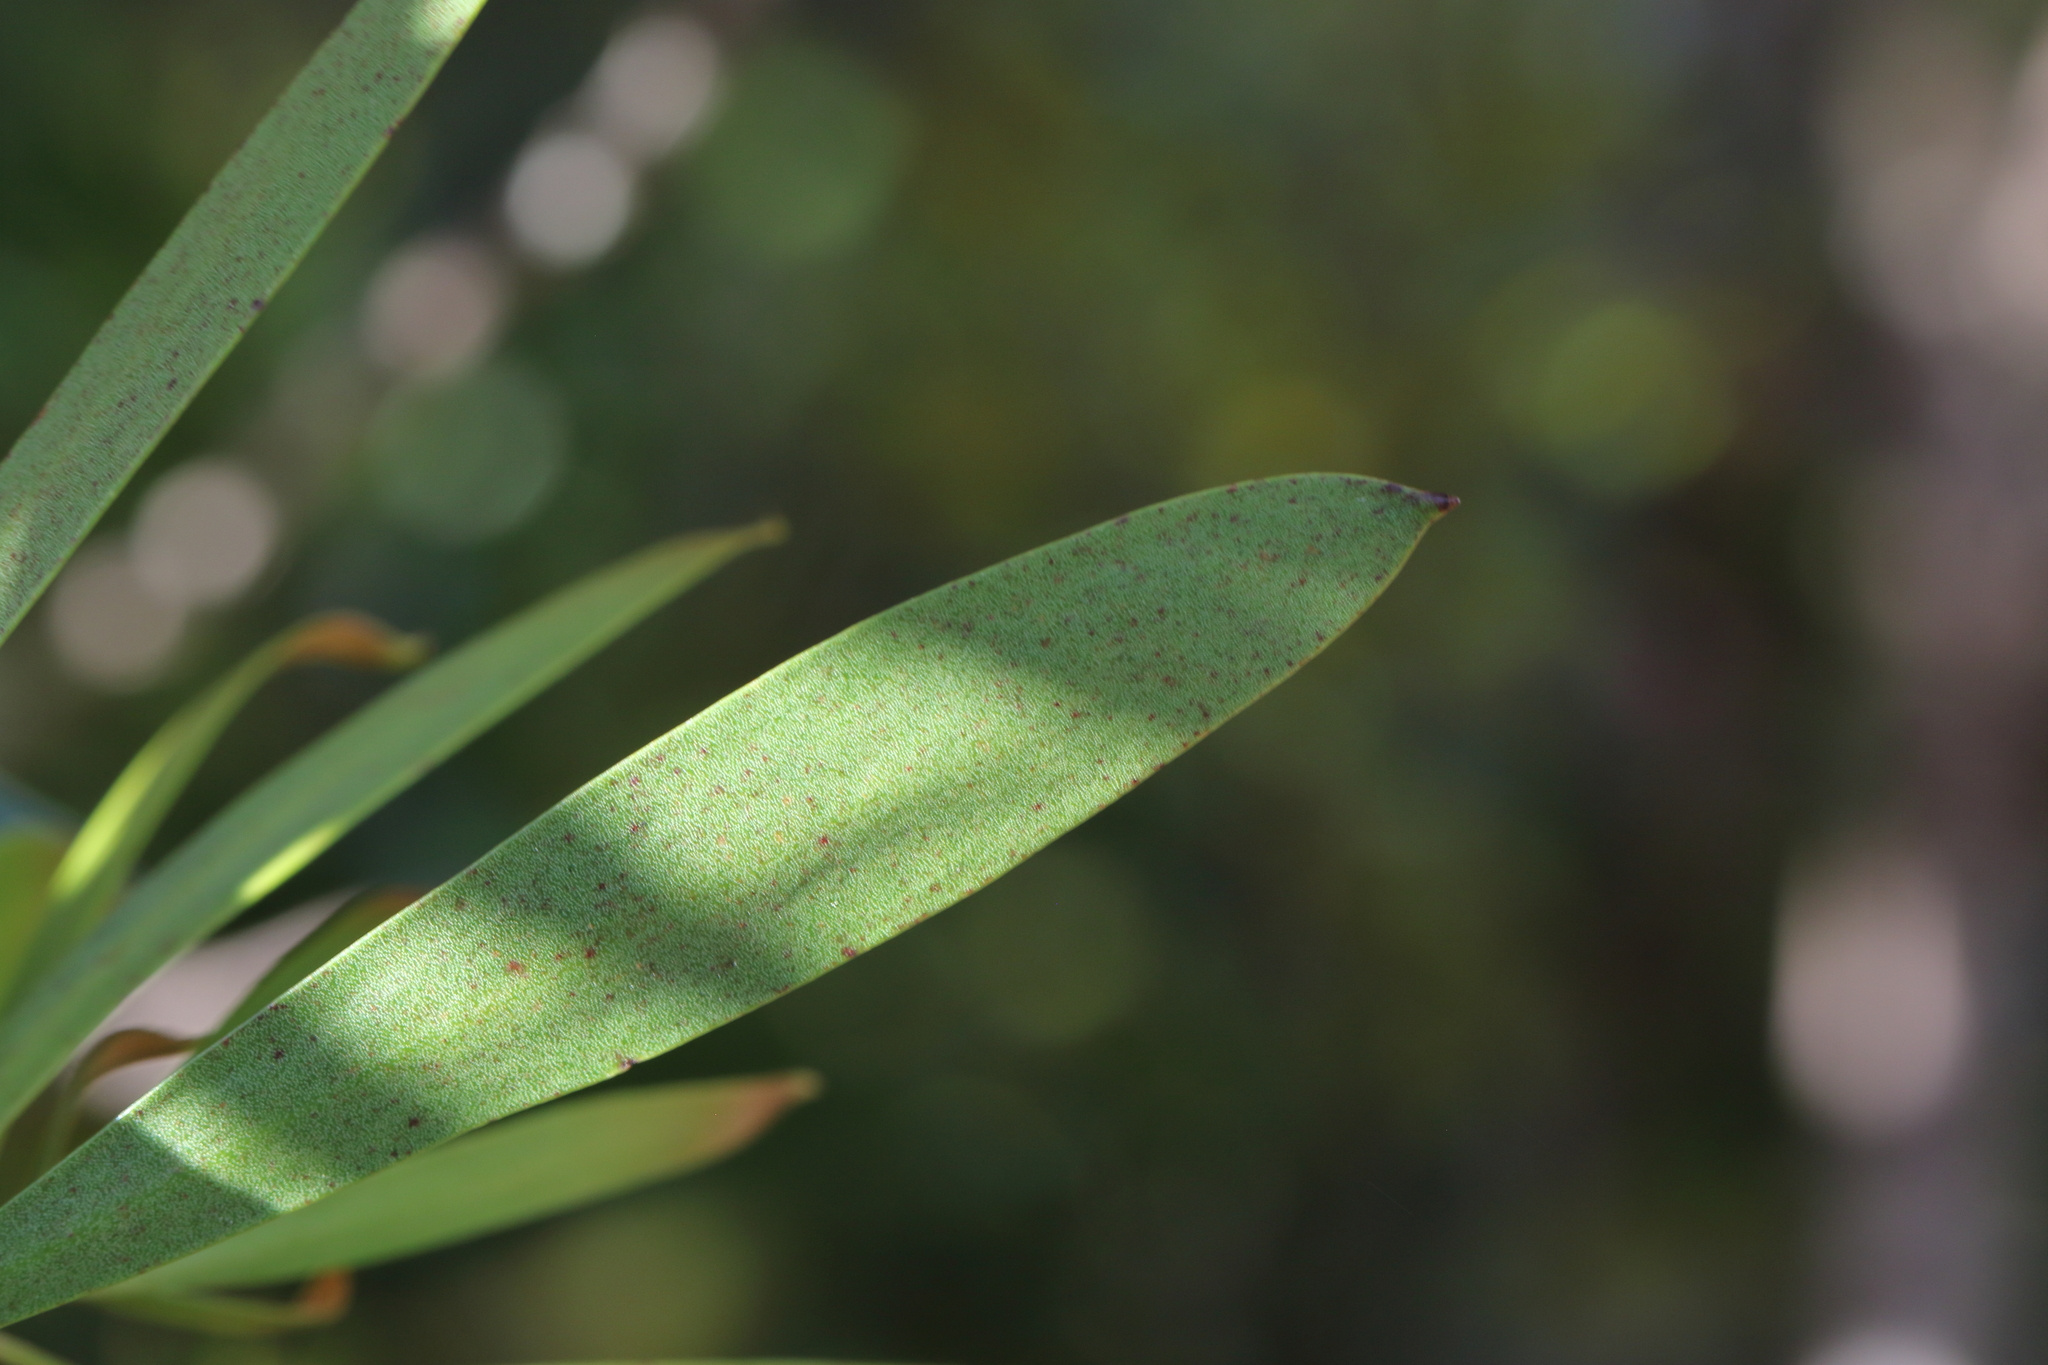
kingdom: Plantae
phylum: Tracheophyta
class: Magnoliopsida
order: Proteales
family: Proteaceae
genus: Toronia
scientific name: Toronia toru
